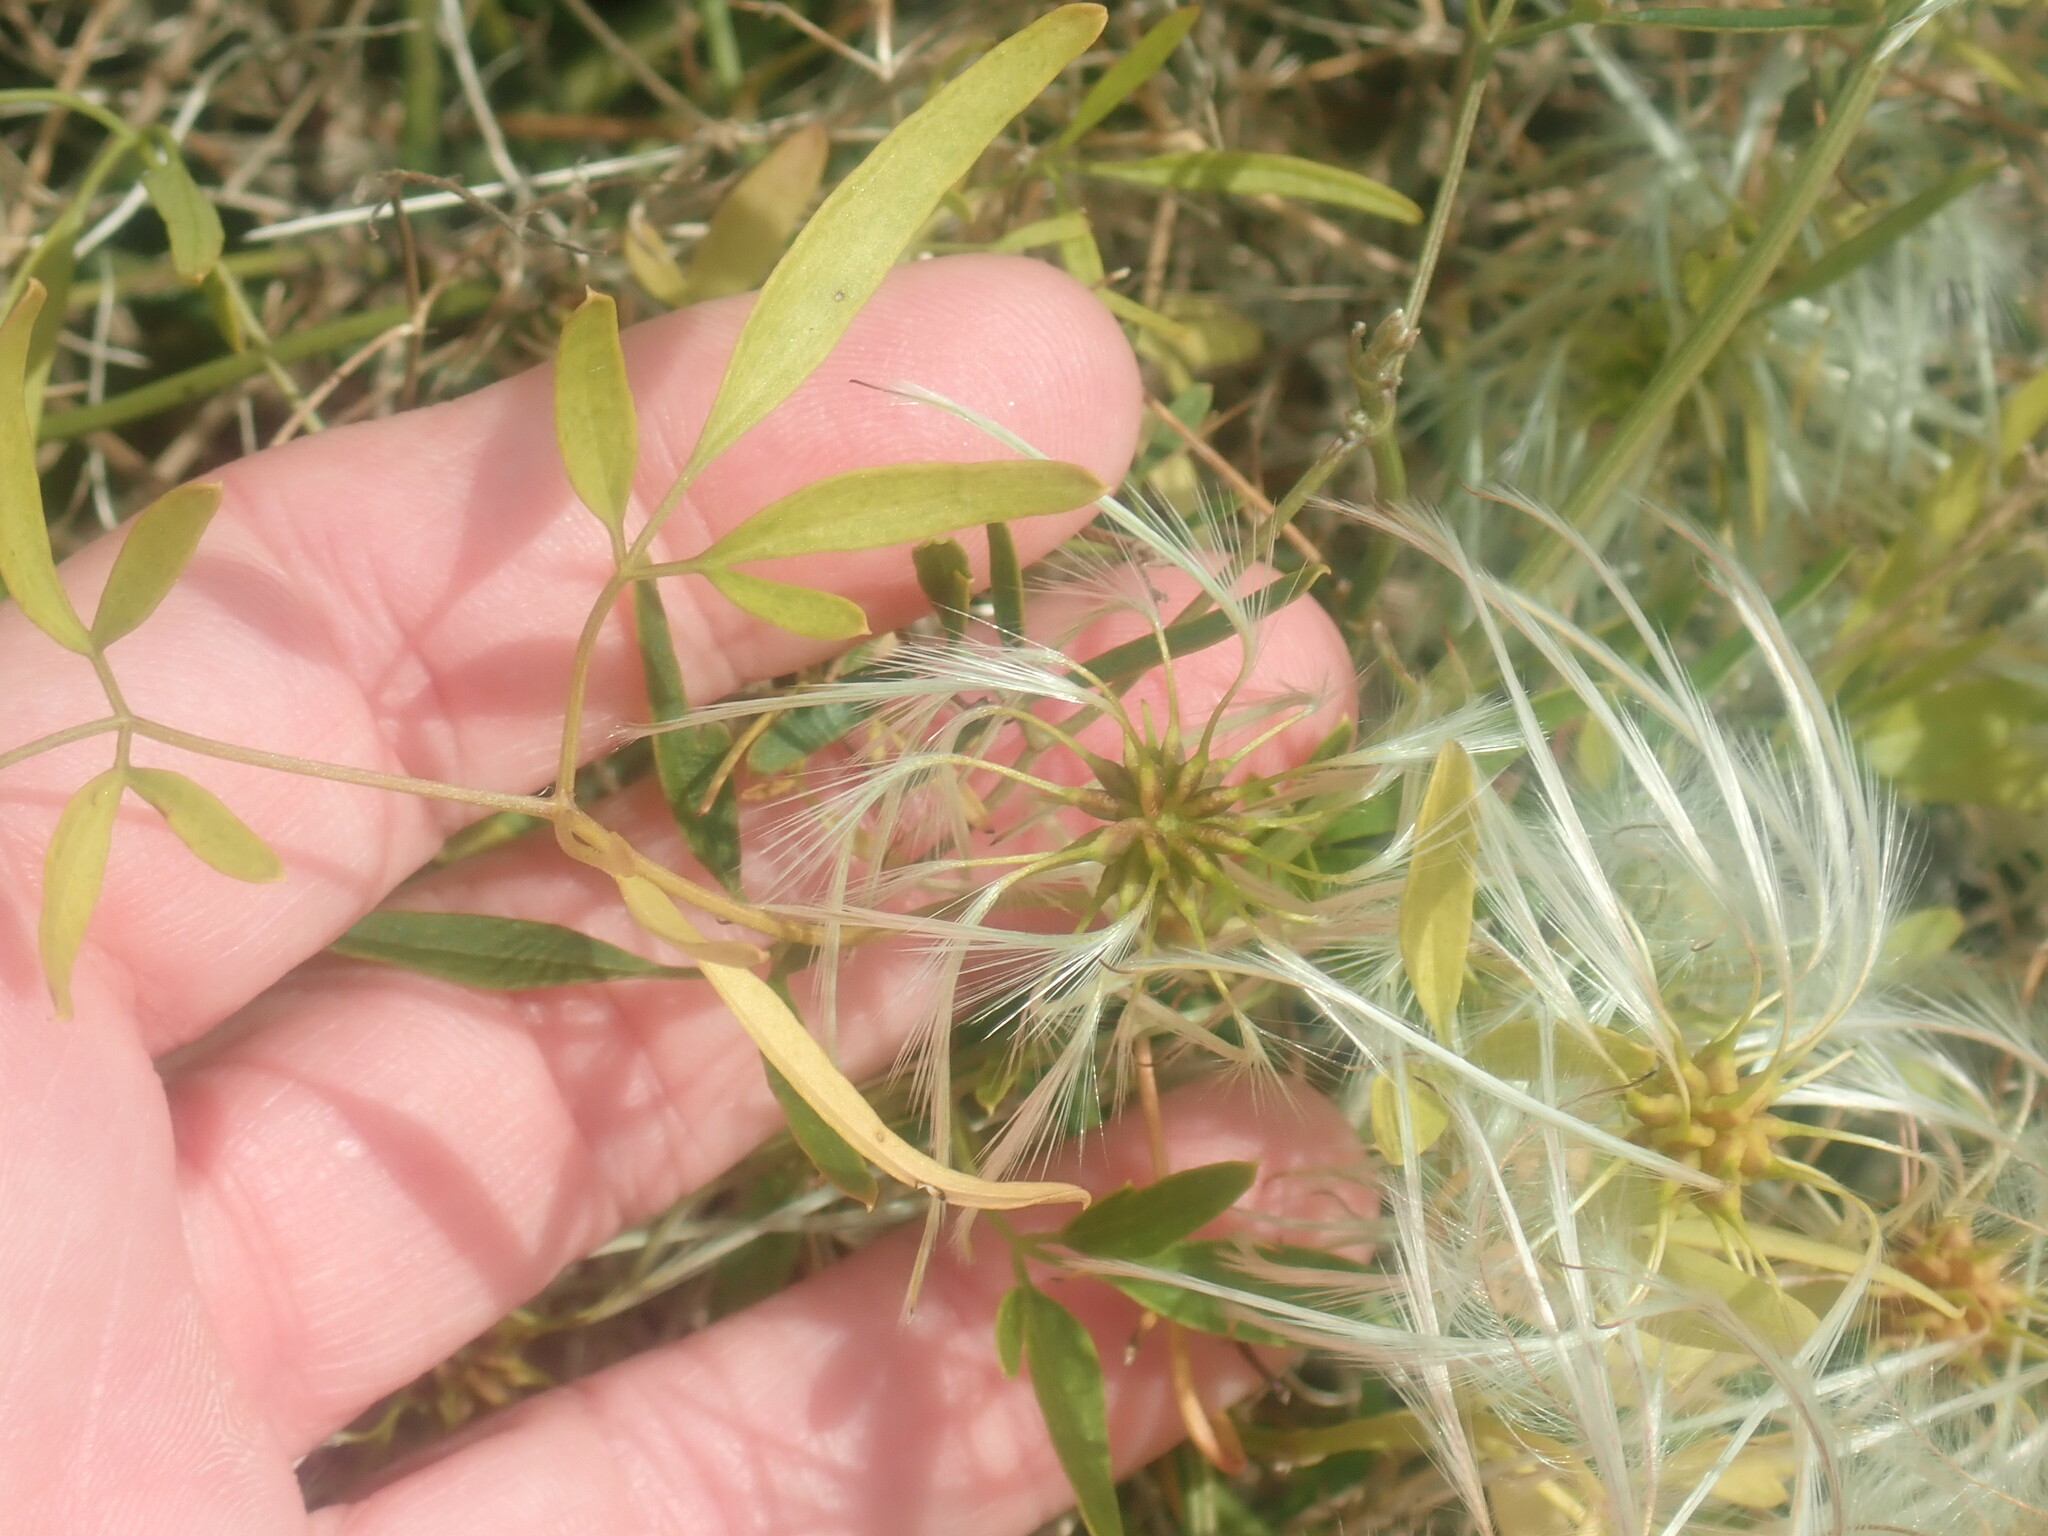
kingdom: Plantae
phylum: Tracheophyta
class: Magnoliopsida
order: Ranunculales
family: Ranunculaceae
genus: Clematis
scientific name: Clematis microphylla
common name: Headachevine
